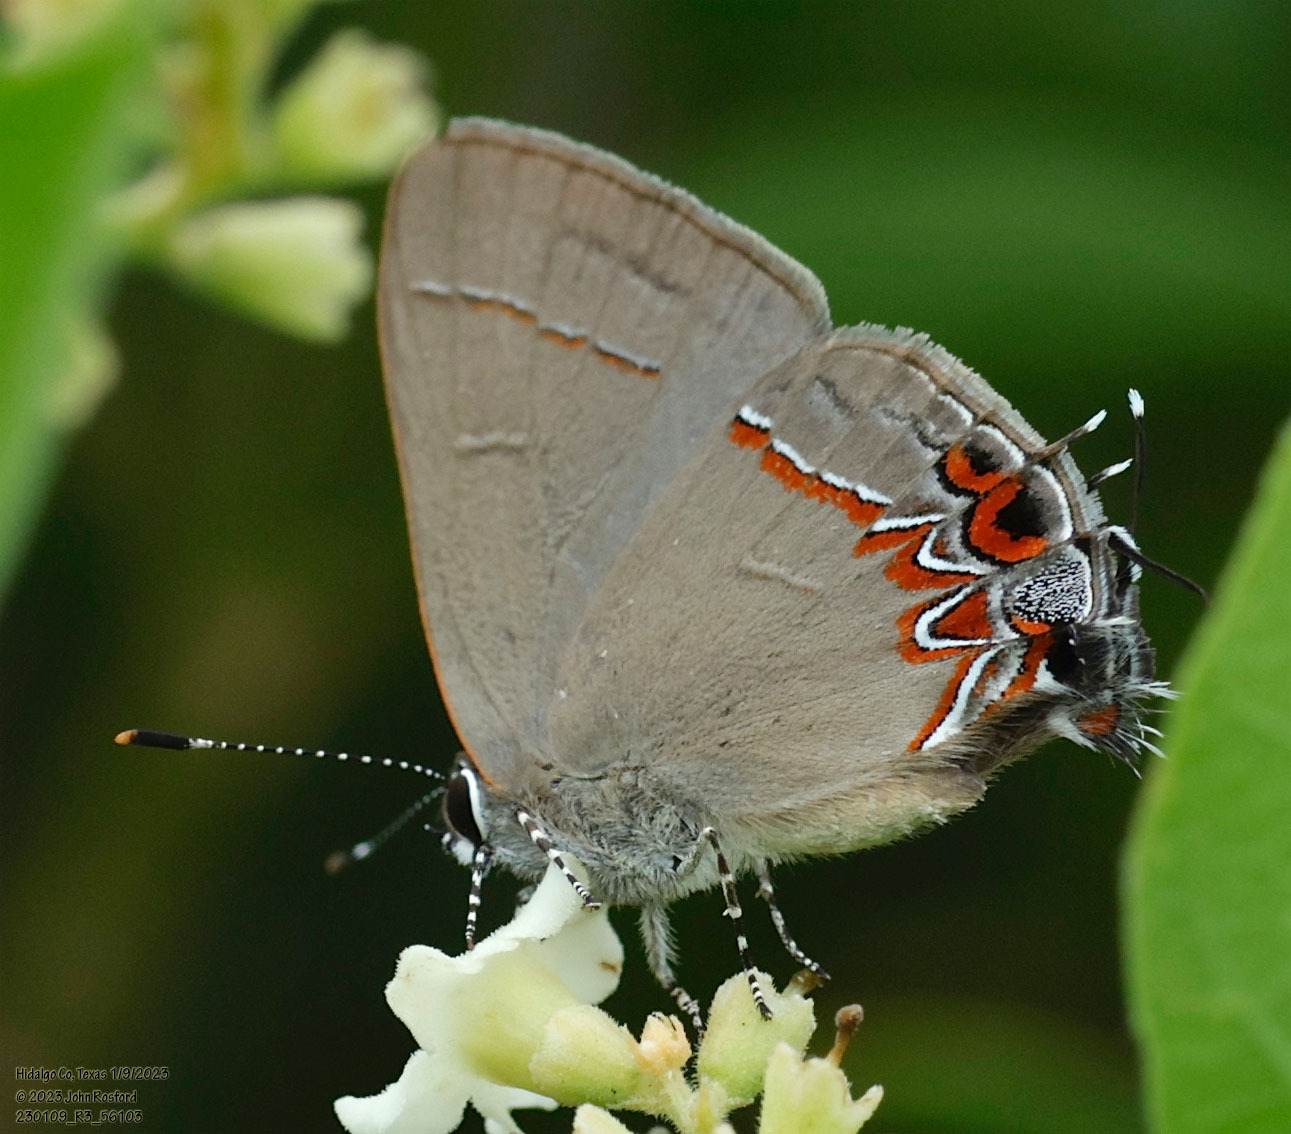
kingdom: Animalia
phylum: Arthropoda
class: Insecta
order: Lepidoptera
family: Lycaenidae
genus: Calycopis
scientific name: Calycopis isobeon
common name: Dusky-blue groundstreak
